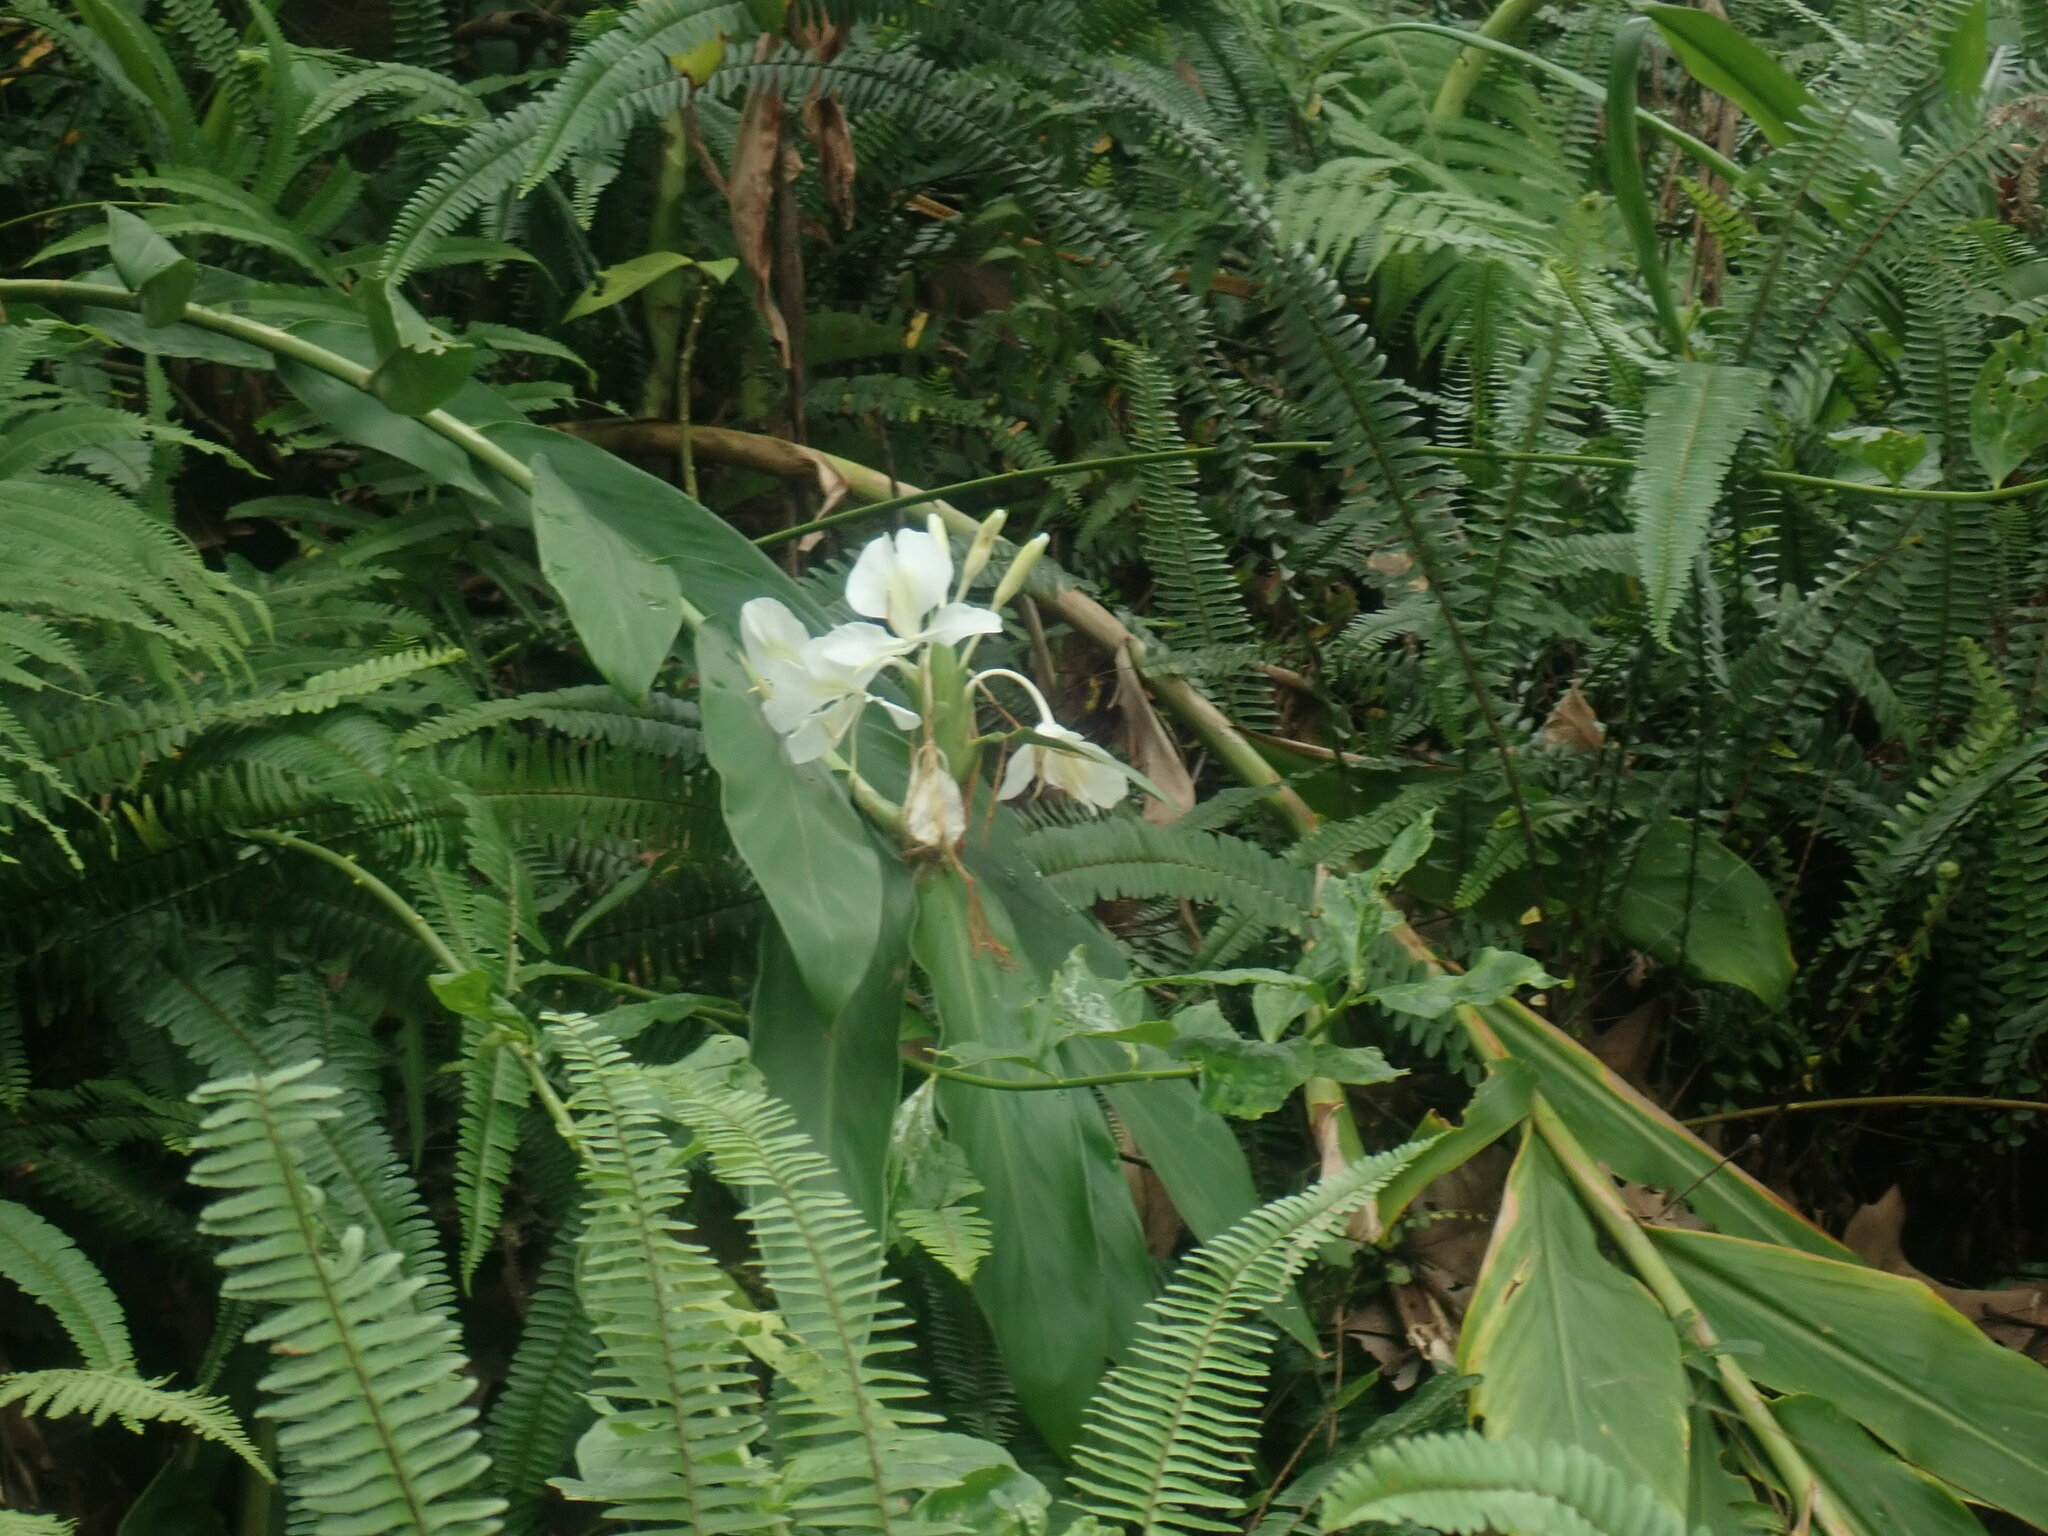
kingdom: Plantae
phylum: Tracheophyta
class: Liliopsida
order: Zingiberales
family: Zingiberaceae
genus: Hedychium
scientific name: Hedychium coronarium
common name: White garland-lily
